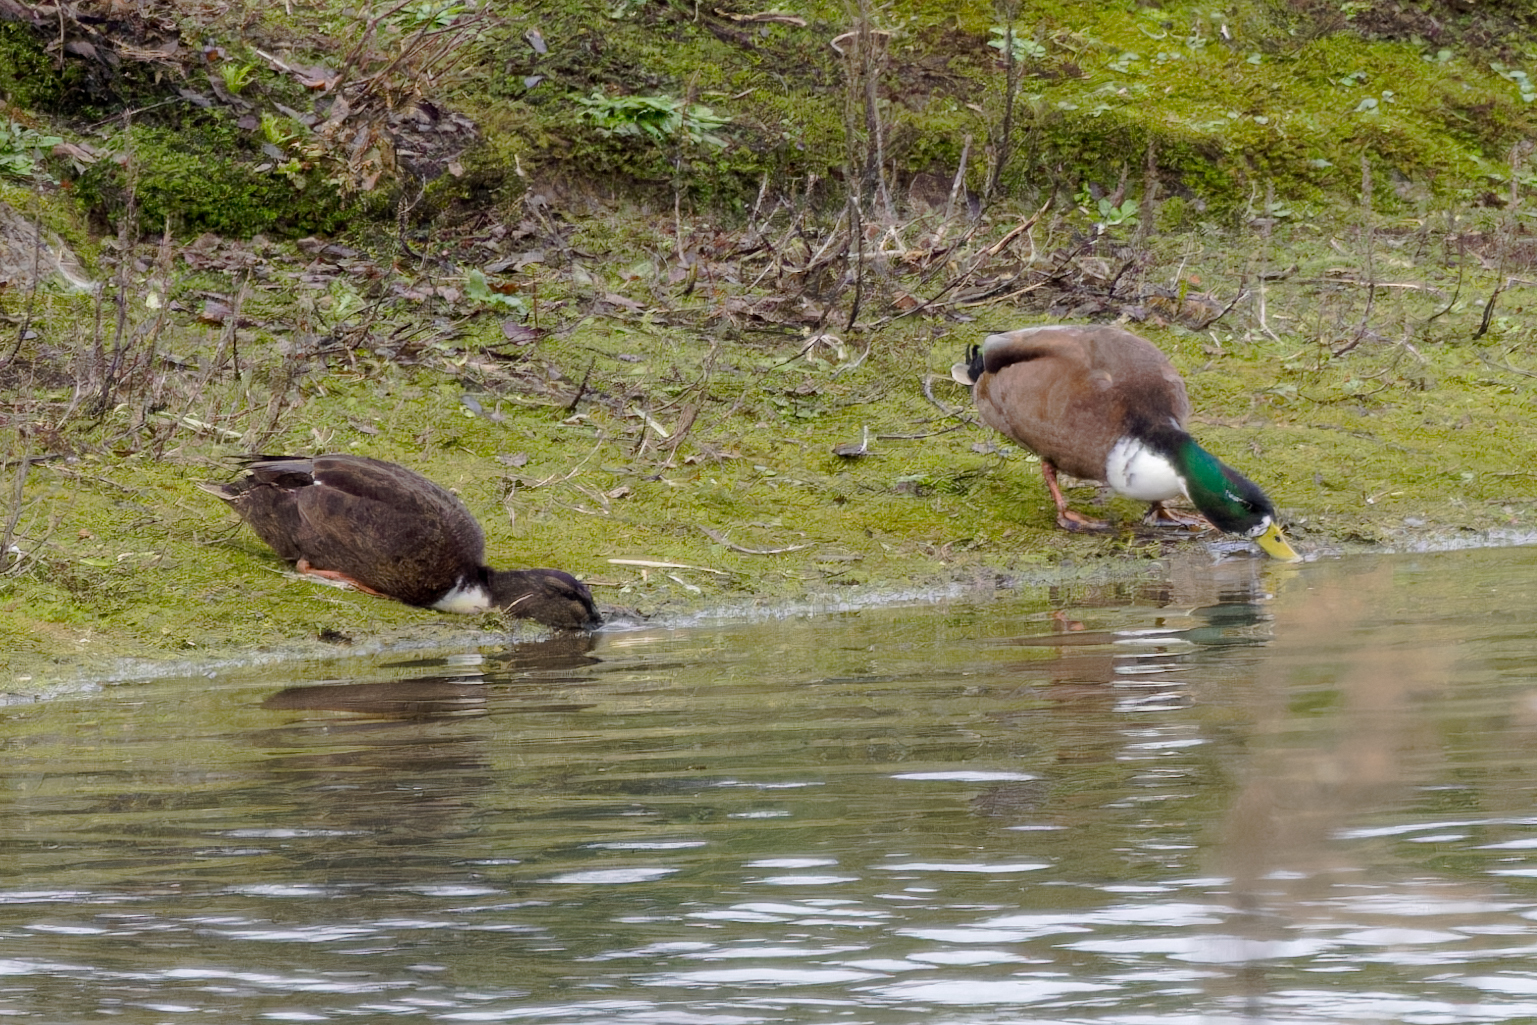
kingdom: Animalia
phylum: Chordata
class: Aves
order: Anseriformes
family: Anatidae
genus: Anas
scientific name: Anas platyrhynchos
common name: Mallard
